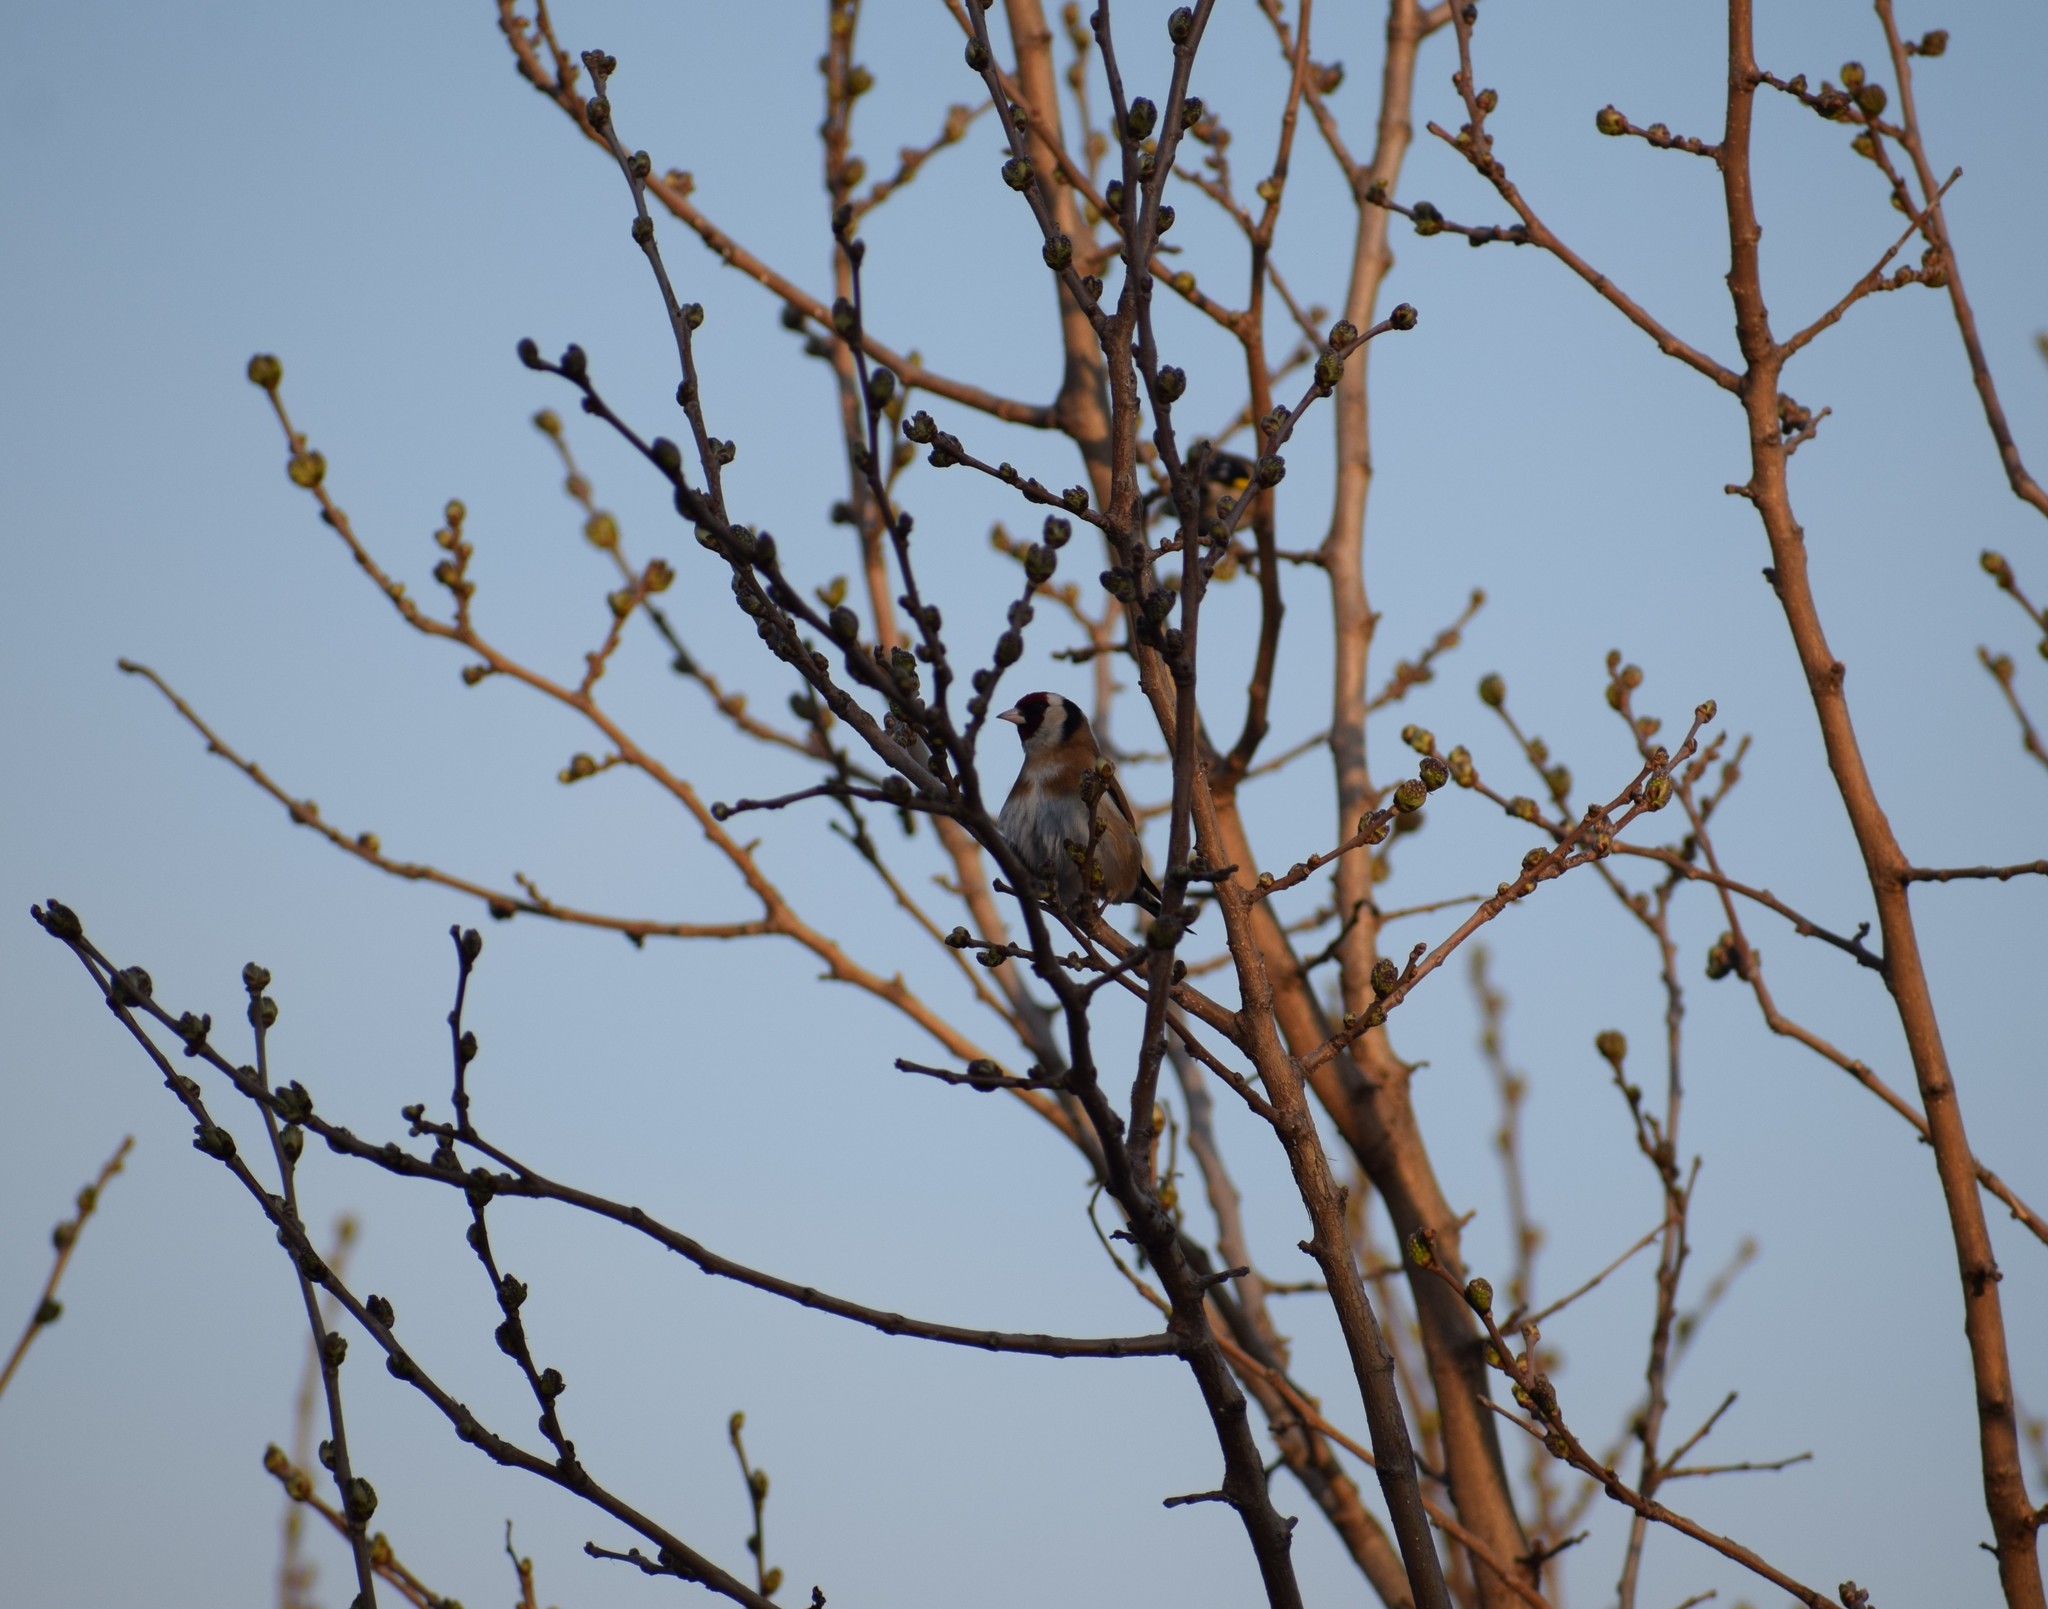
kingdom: Animalia
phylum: Chordata
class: Aves
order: Passeriformes
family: Fringillidae
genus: Carduelis
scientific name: Carduelis carduelis
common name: European goldfinch
